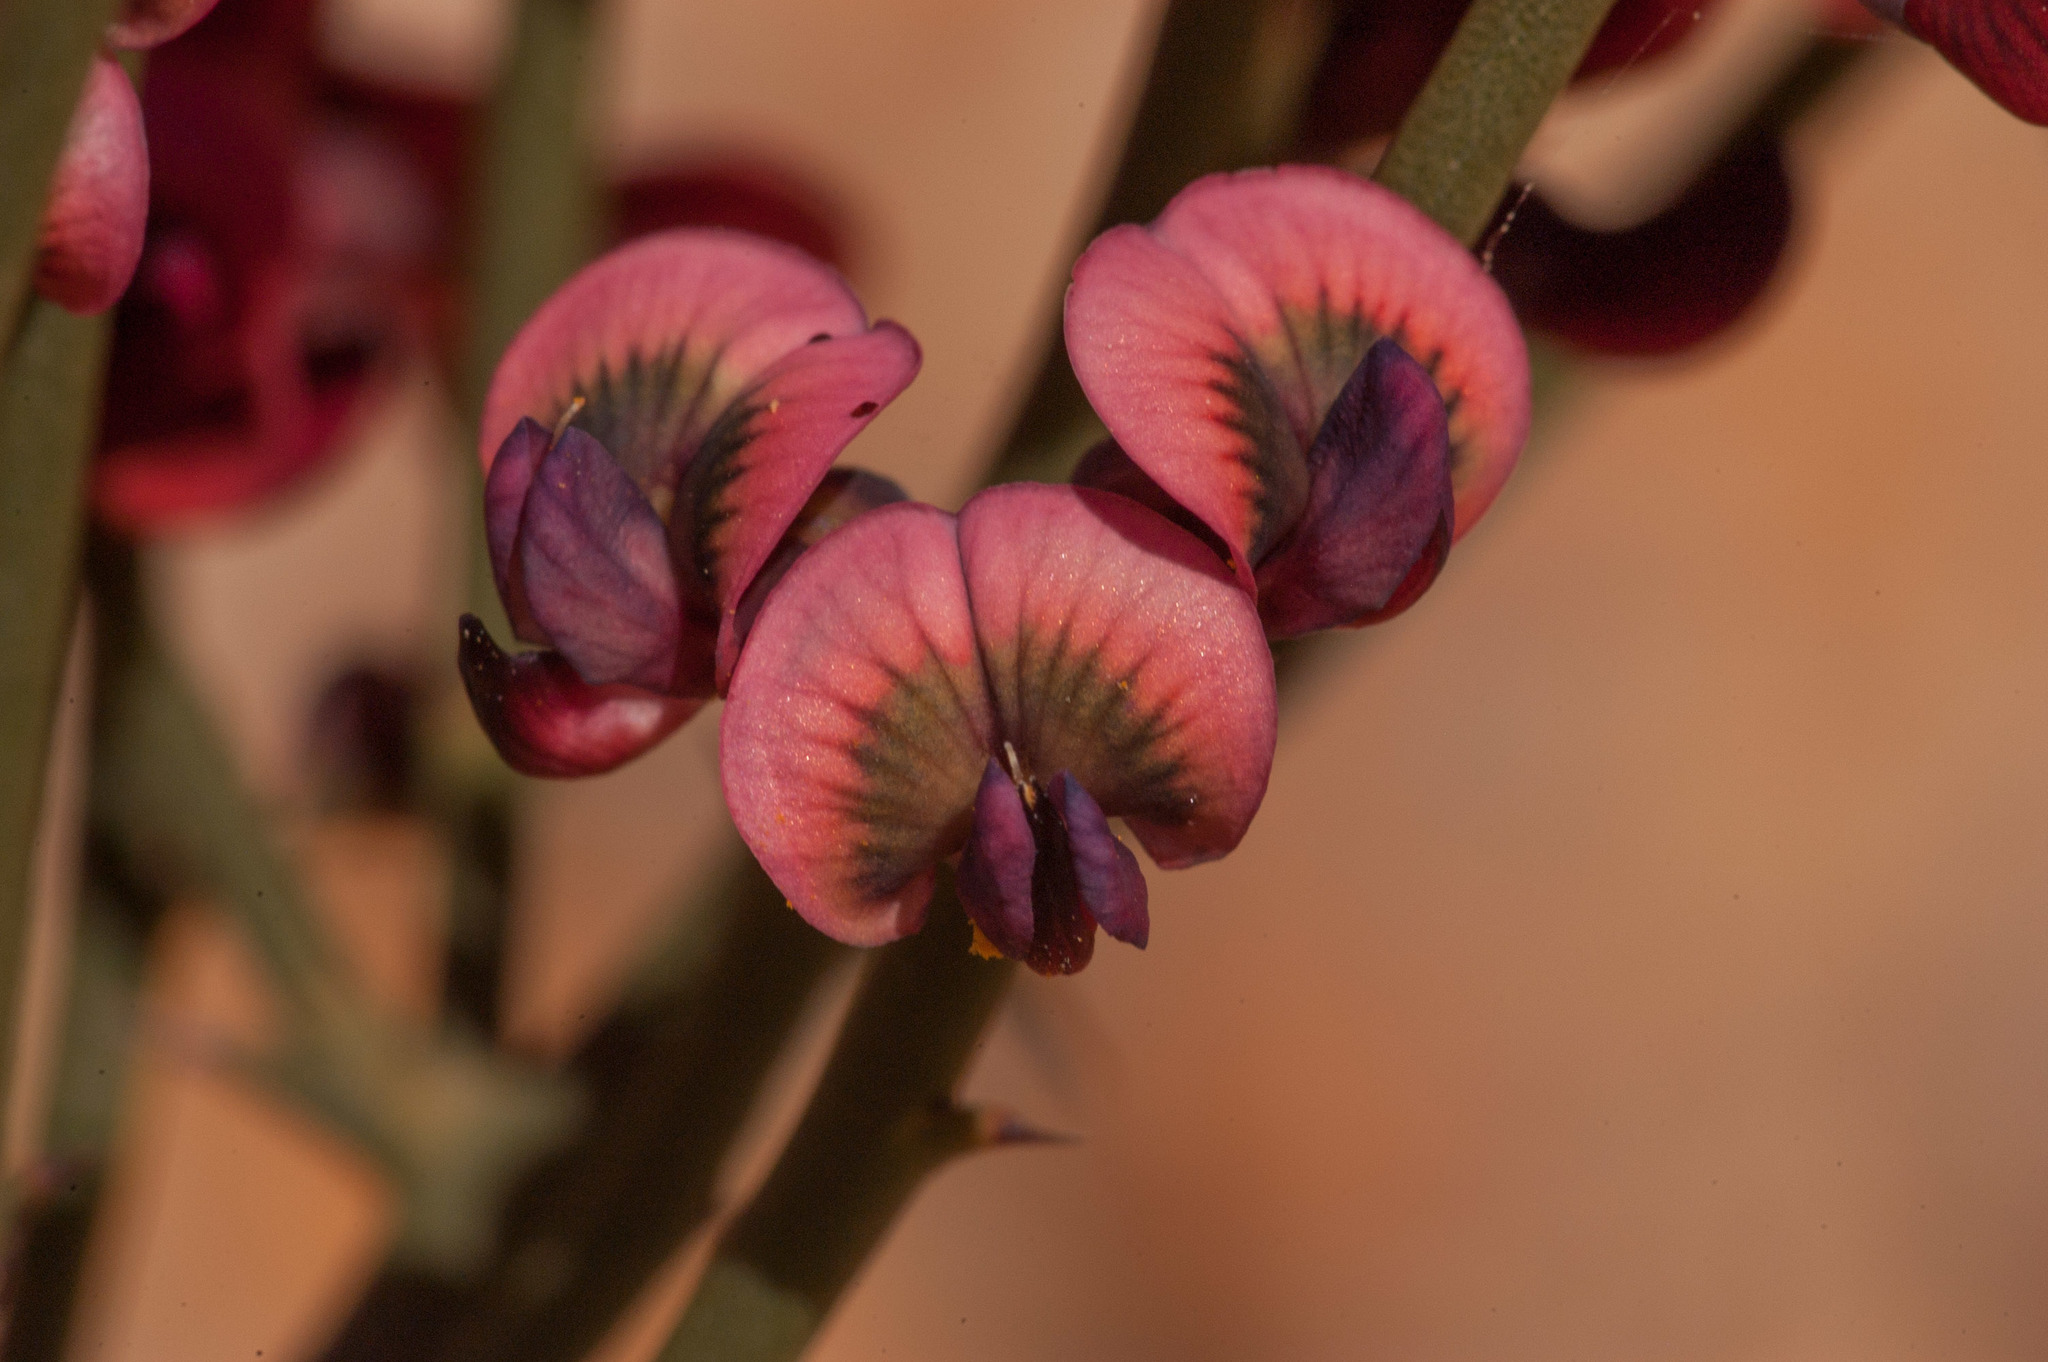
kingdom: Plantae
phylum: Tracheophyta
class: Magnoliopsida
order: Fabales
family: Fabaceae
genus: Daviesia
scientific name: Daviesia brevifolia
